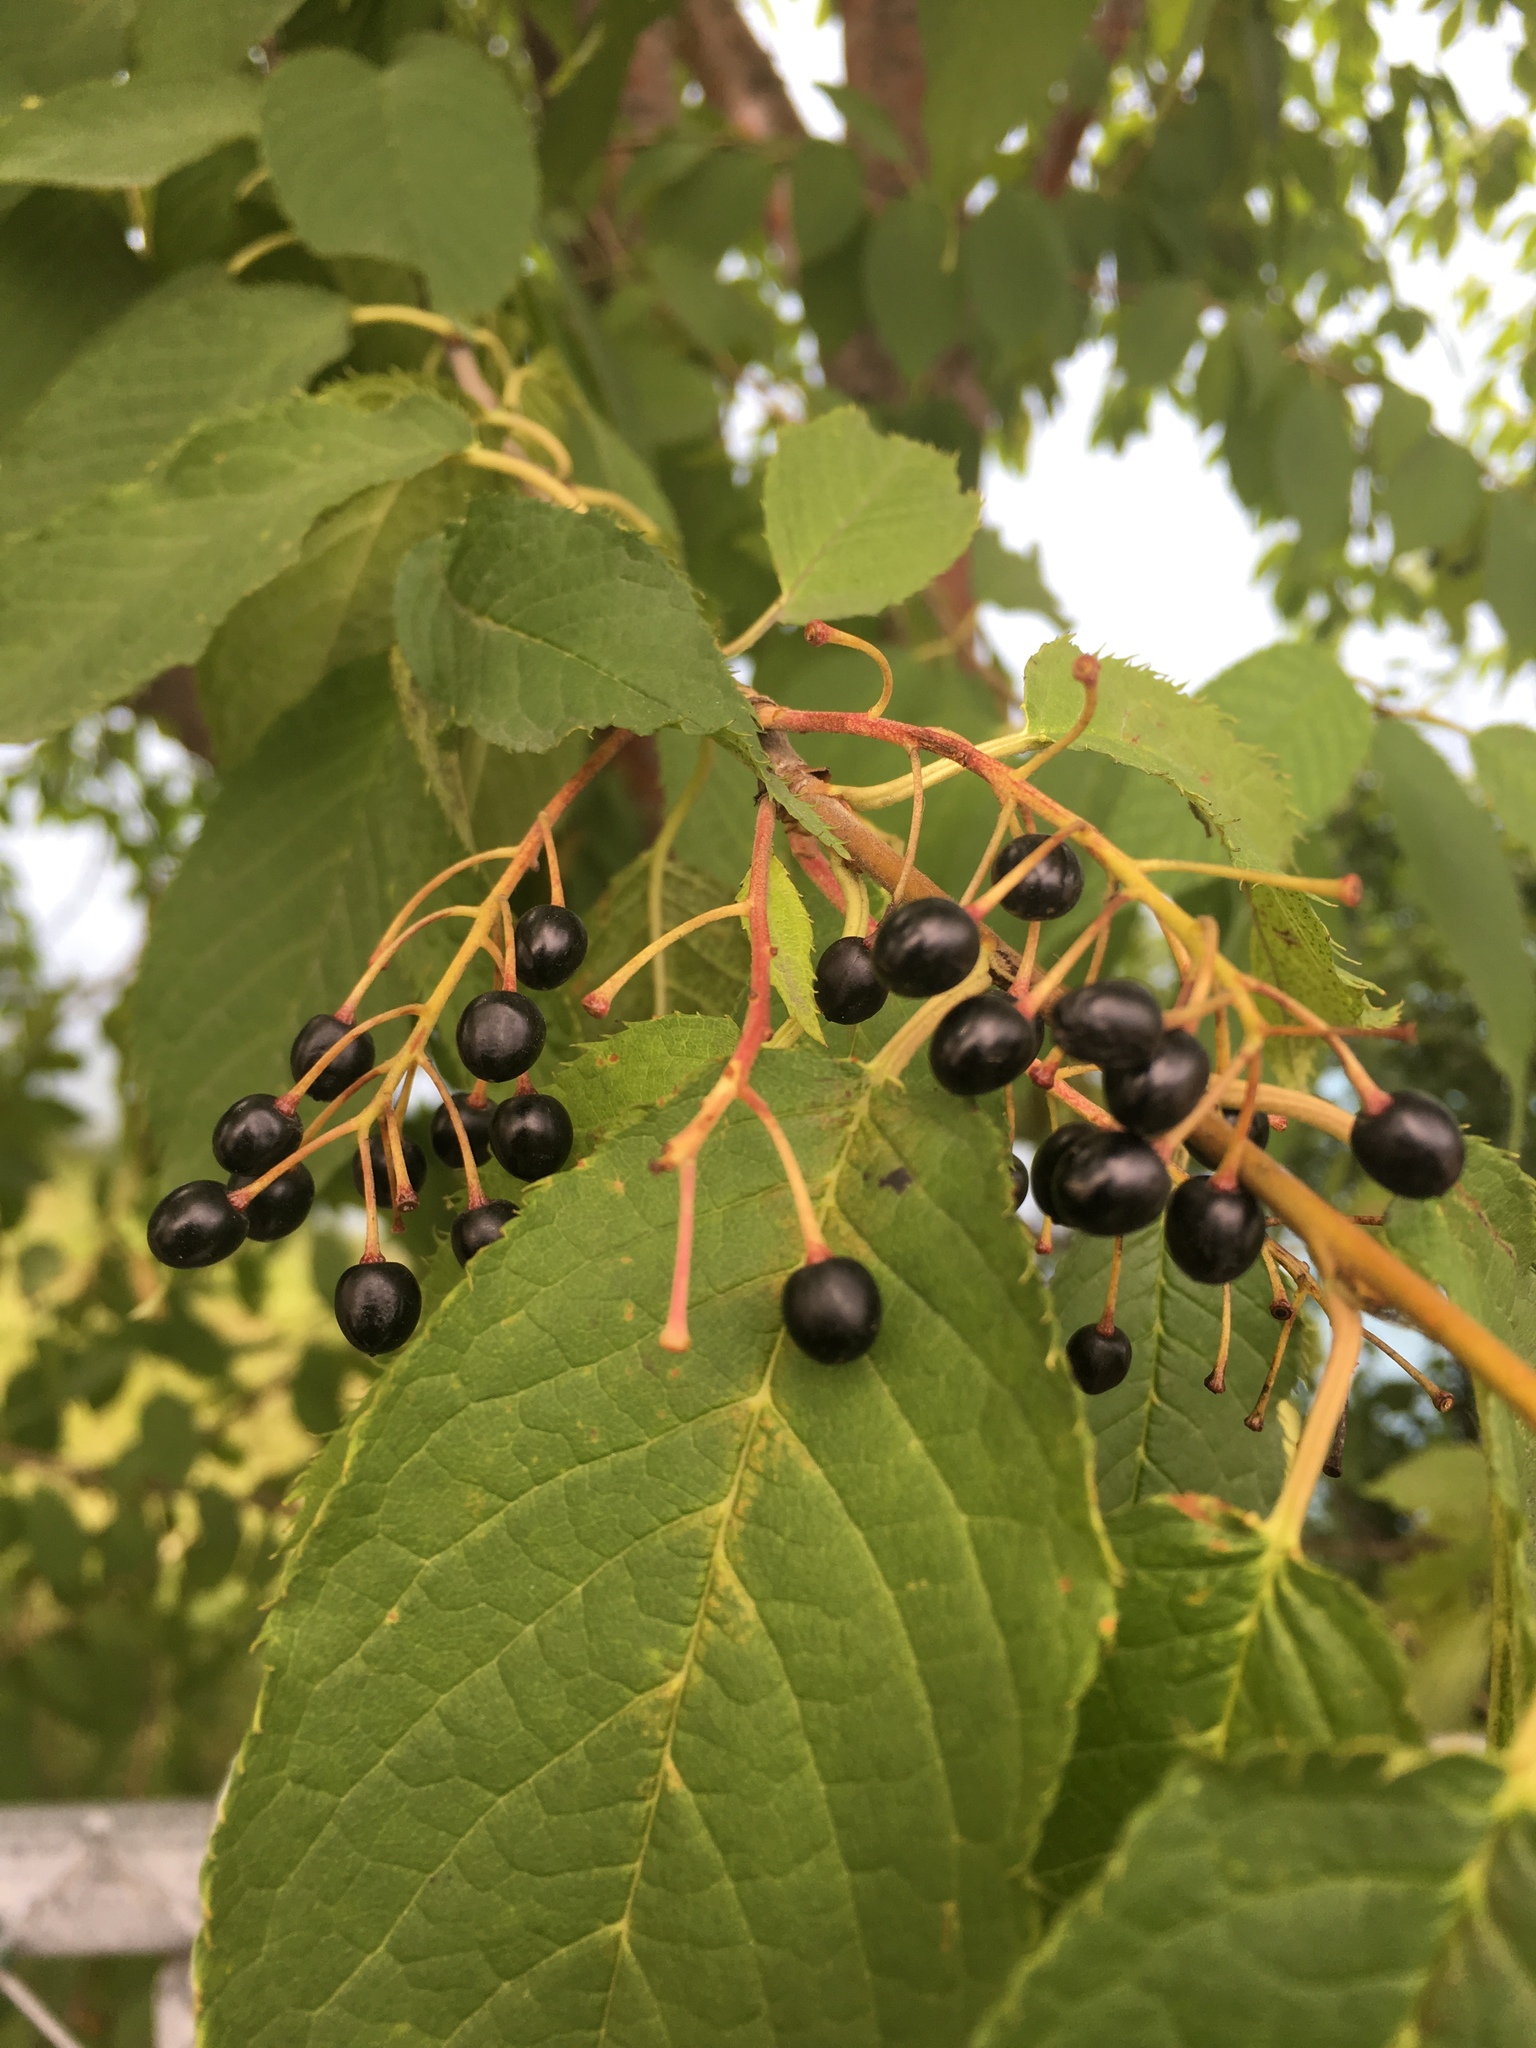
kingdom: Plantae
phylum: Tracheophyta
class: Magnoliopsida
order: Rosales
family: Rosaceae
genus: Prunus
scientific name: Prunus virginiana
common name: Chokecherry
